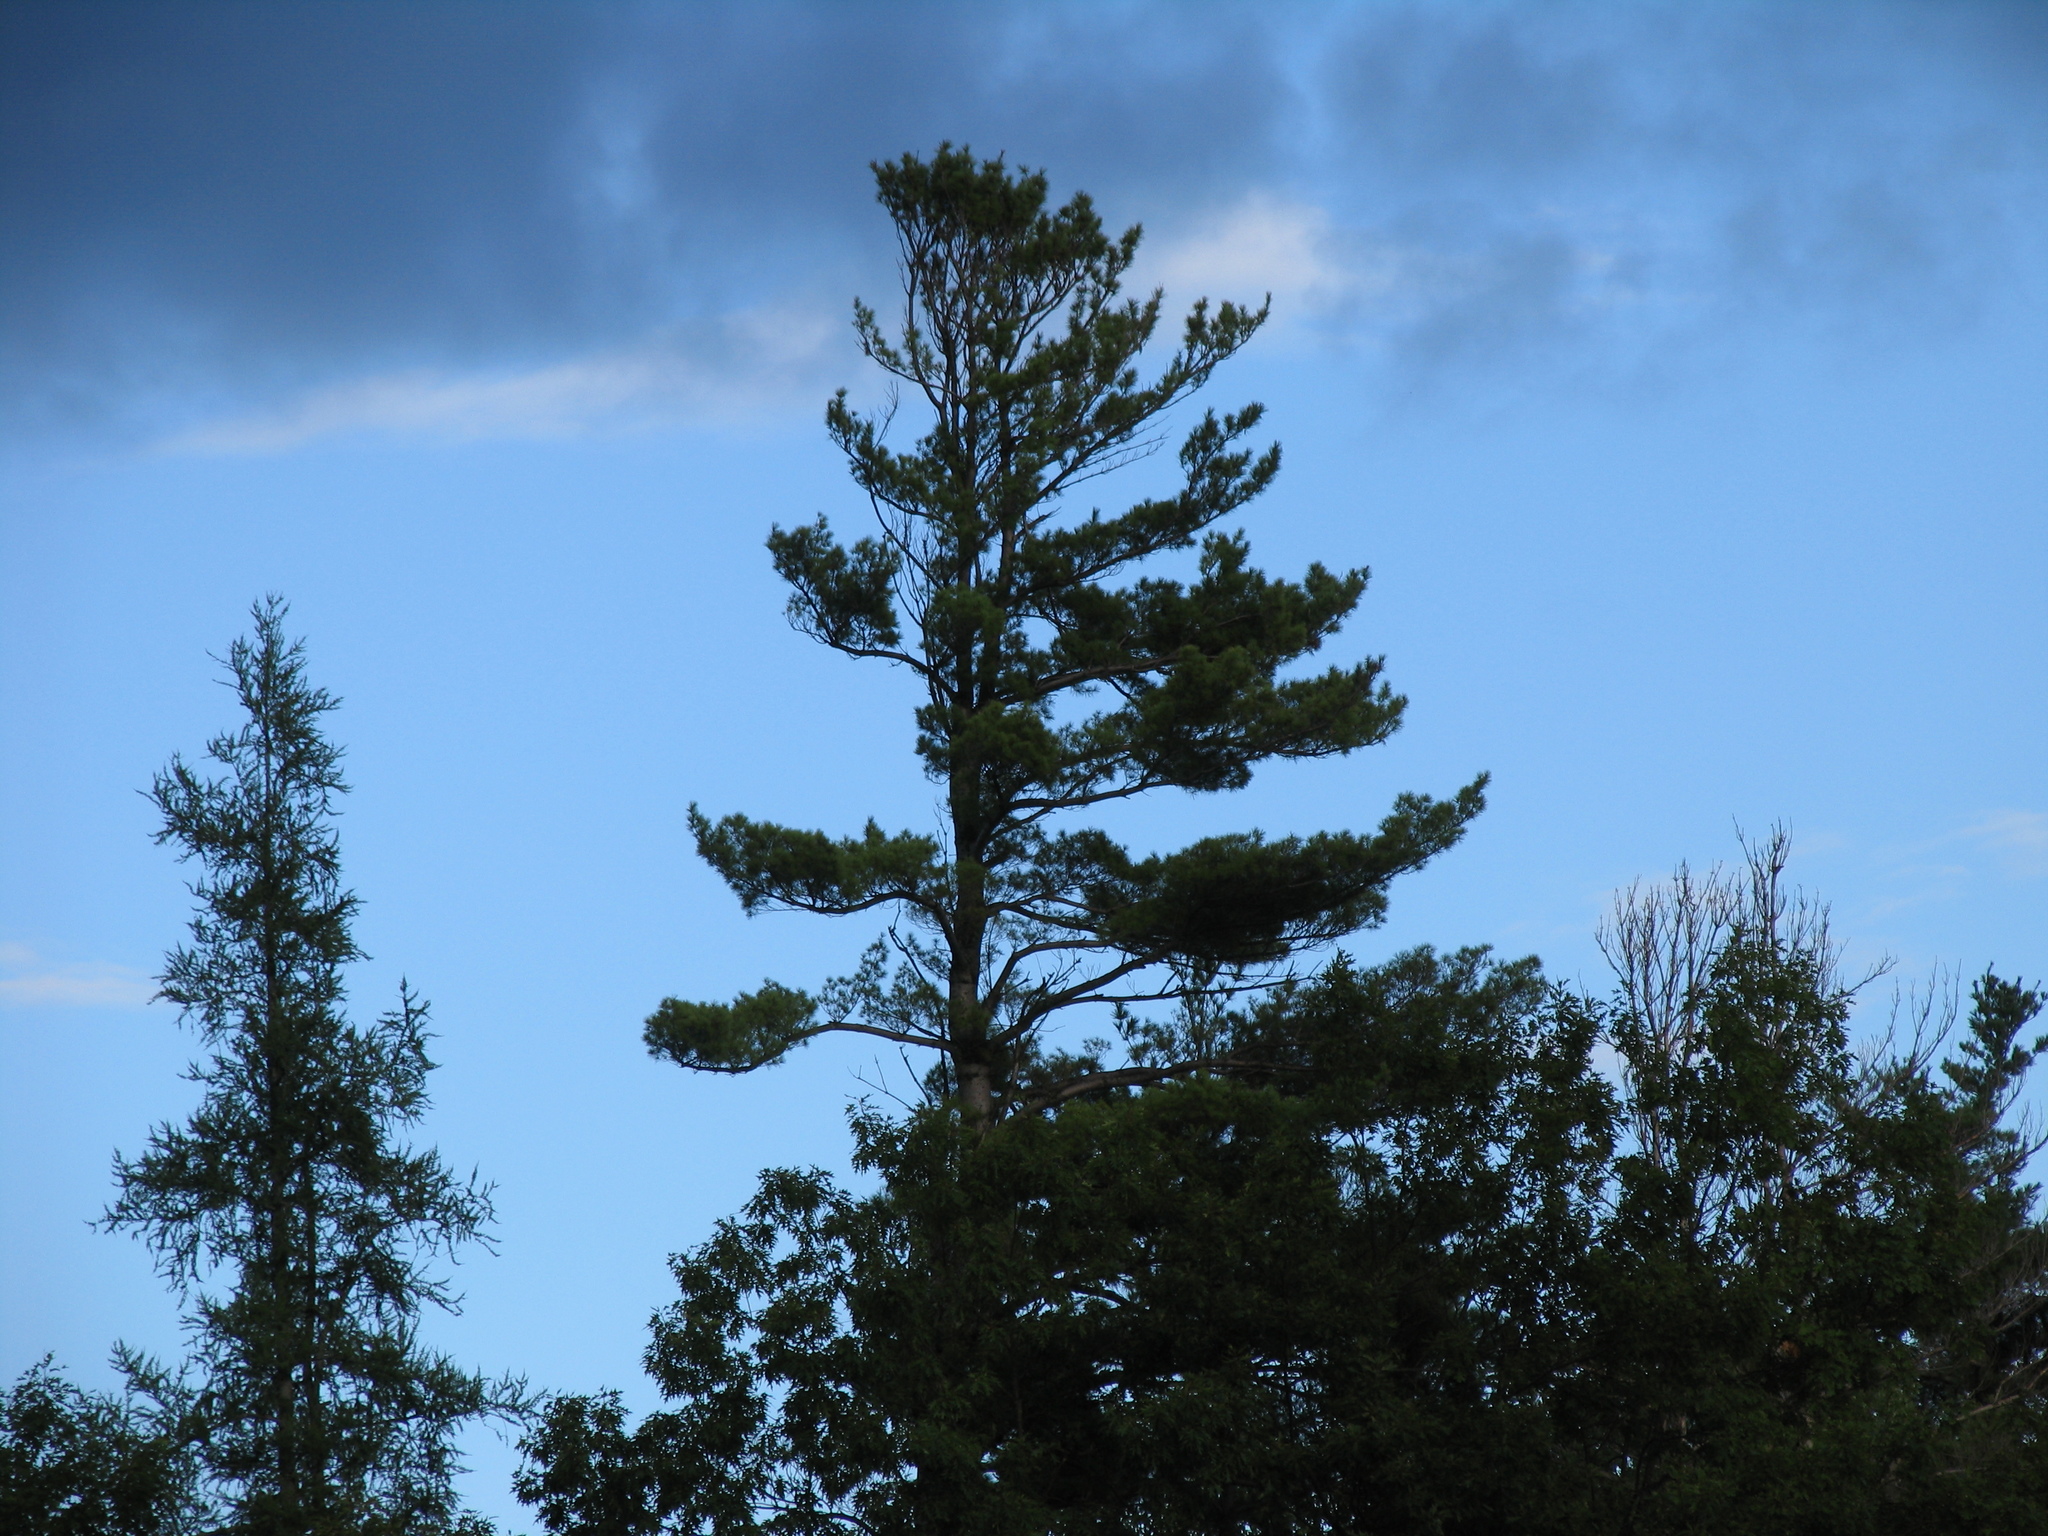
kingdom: Plantae
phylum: Tracheophyta
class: Pinopsida
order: Pinales
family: Pinaceae
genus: Pinus
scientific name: Pinus strobus
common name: Weymouth pine
